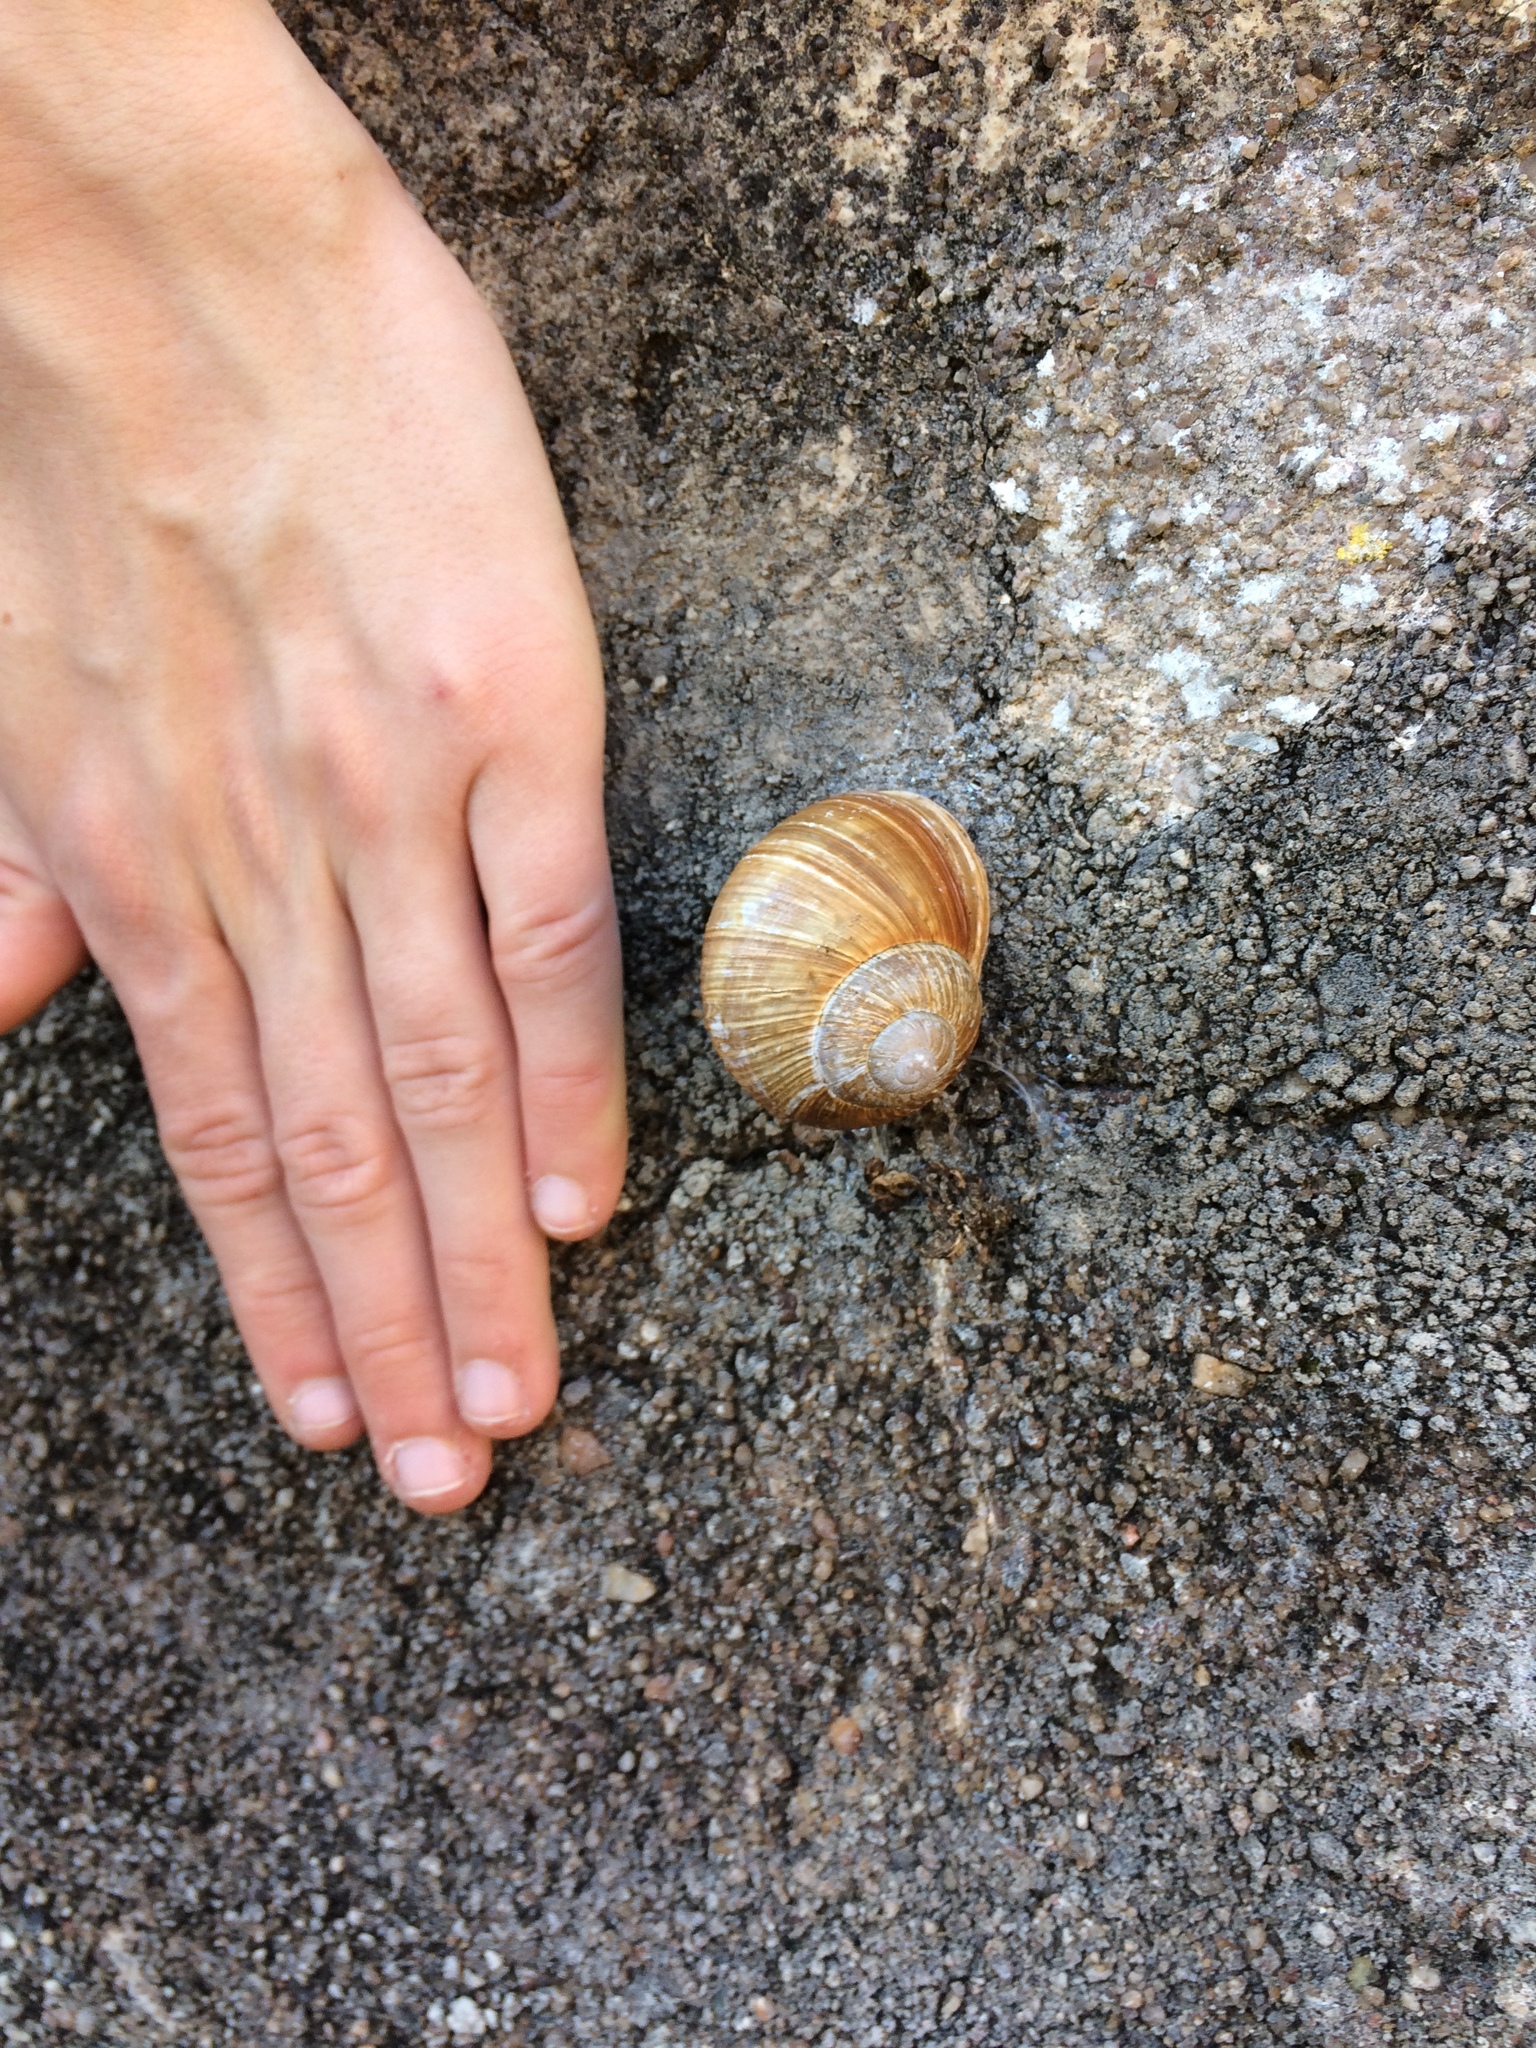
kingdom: Animalia
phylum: Mollusca
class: Gastropoda
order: Stylommatophora
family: Helicidae
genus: Helix
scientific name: Helix pomatia
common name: Roman snail
